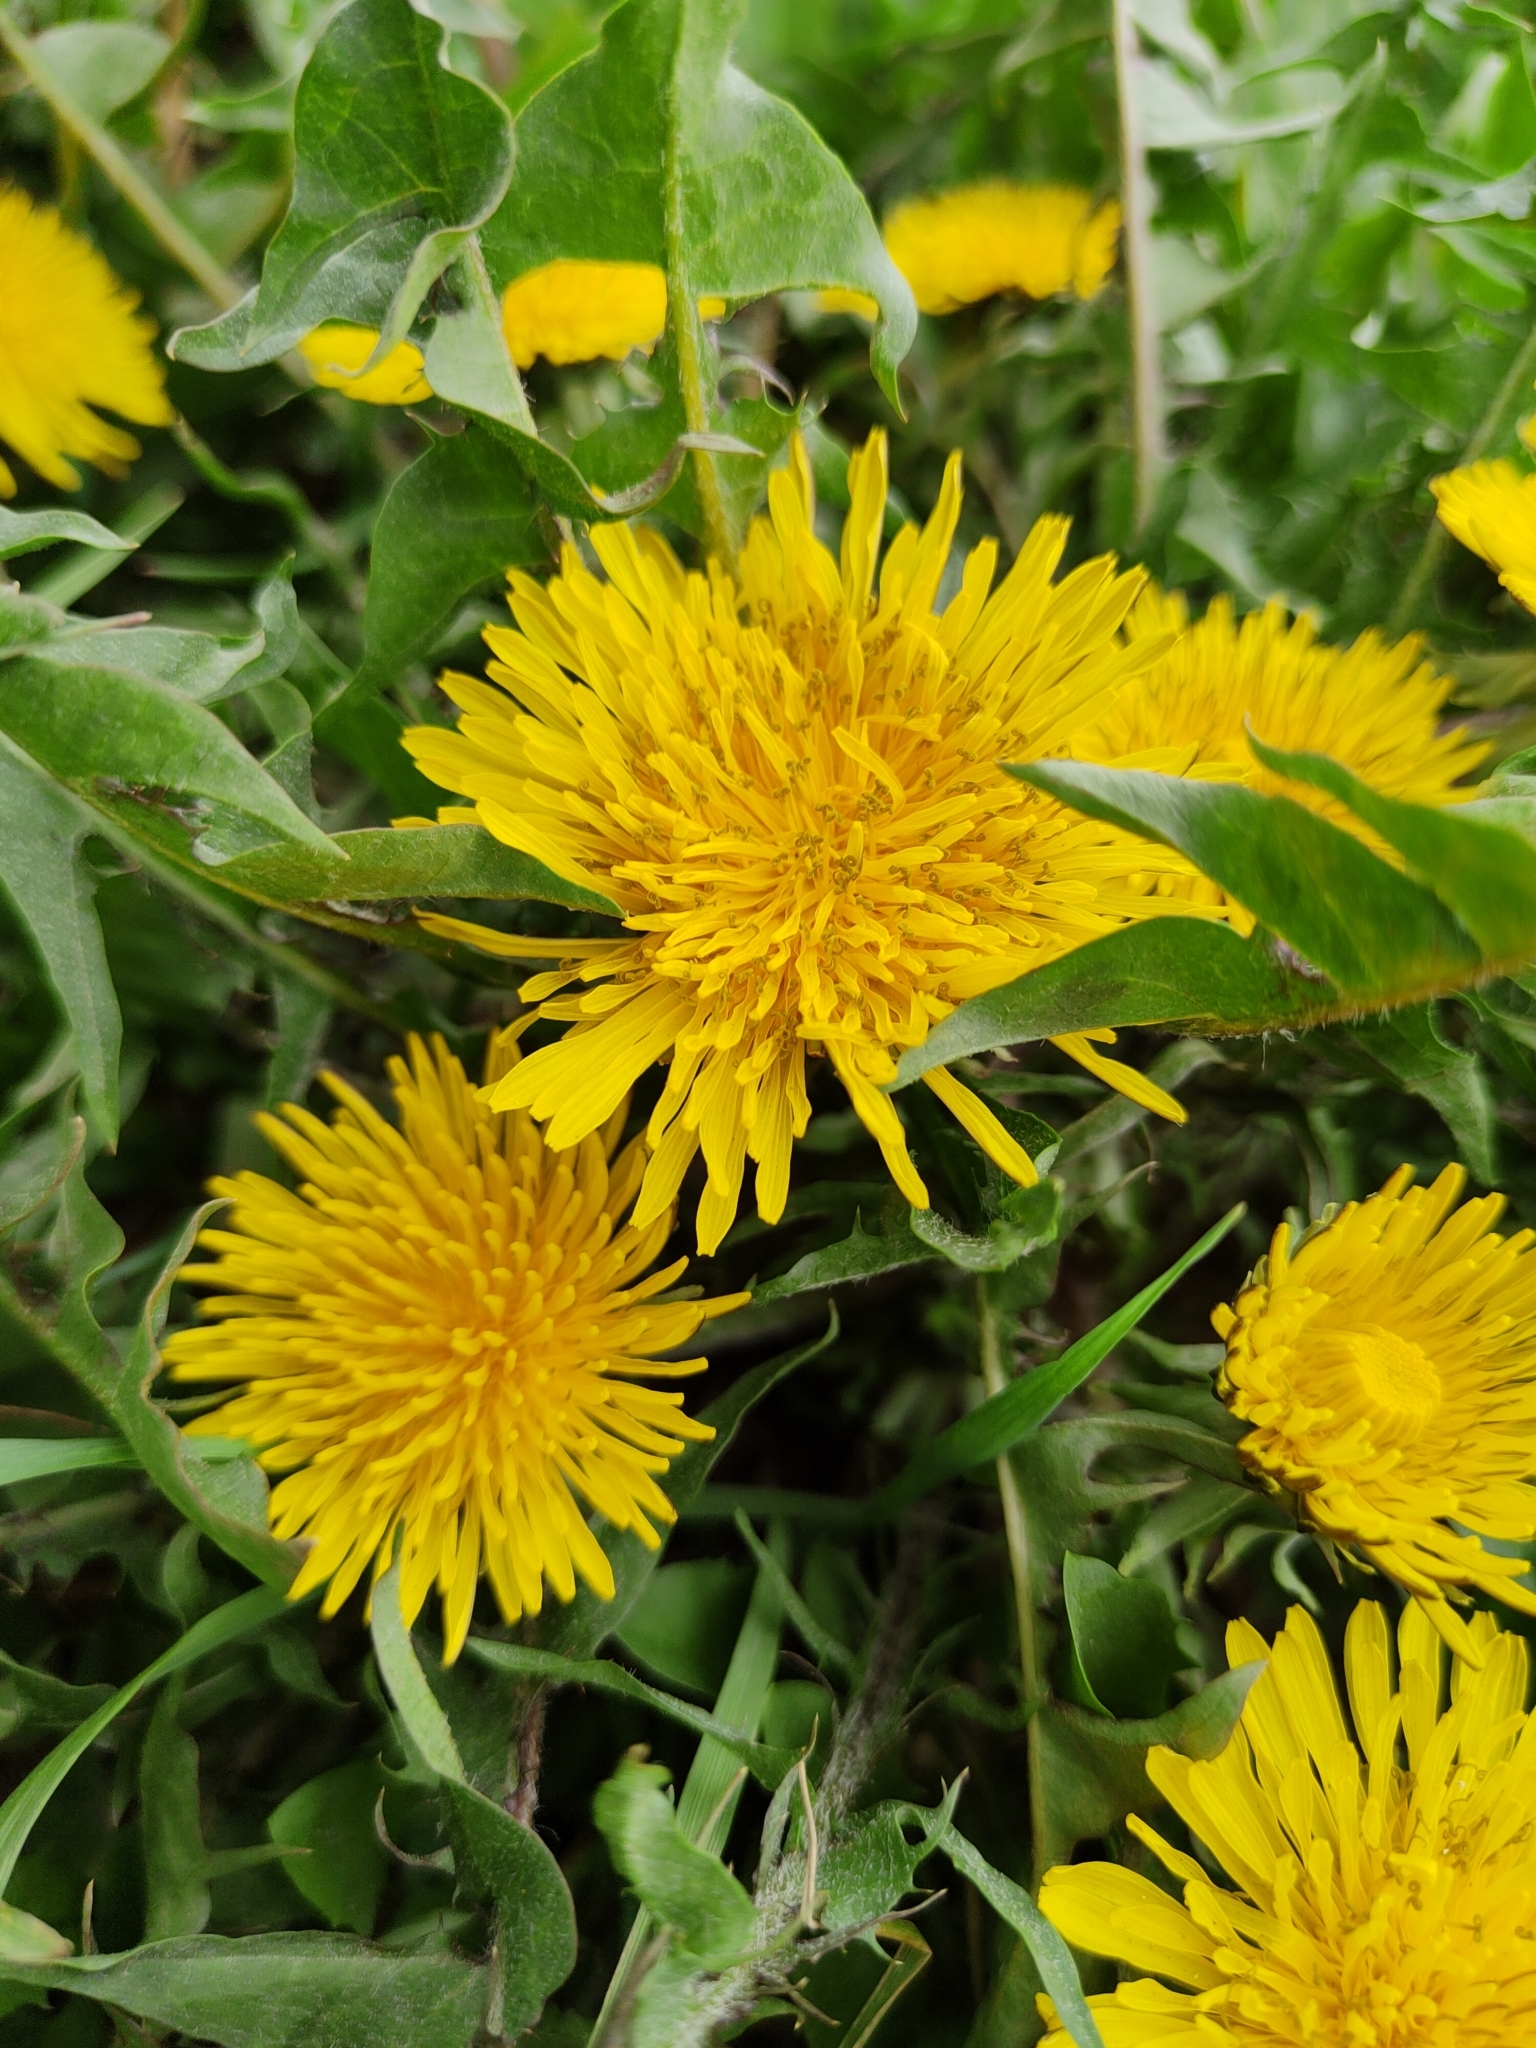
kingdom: Plantae
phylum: Tracheophyta
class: Magnoliopsida
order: Asterales
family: Asteraceae
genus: Taraxacum
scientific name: Taraxacum officinale
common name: Common dandelion
